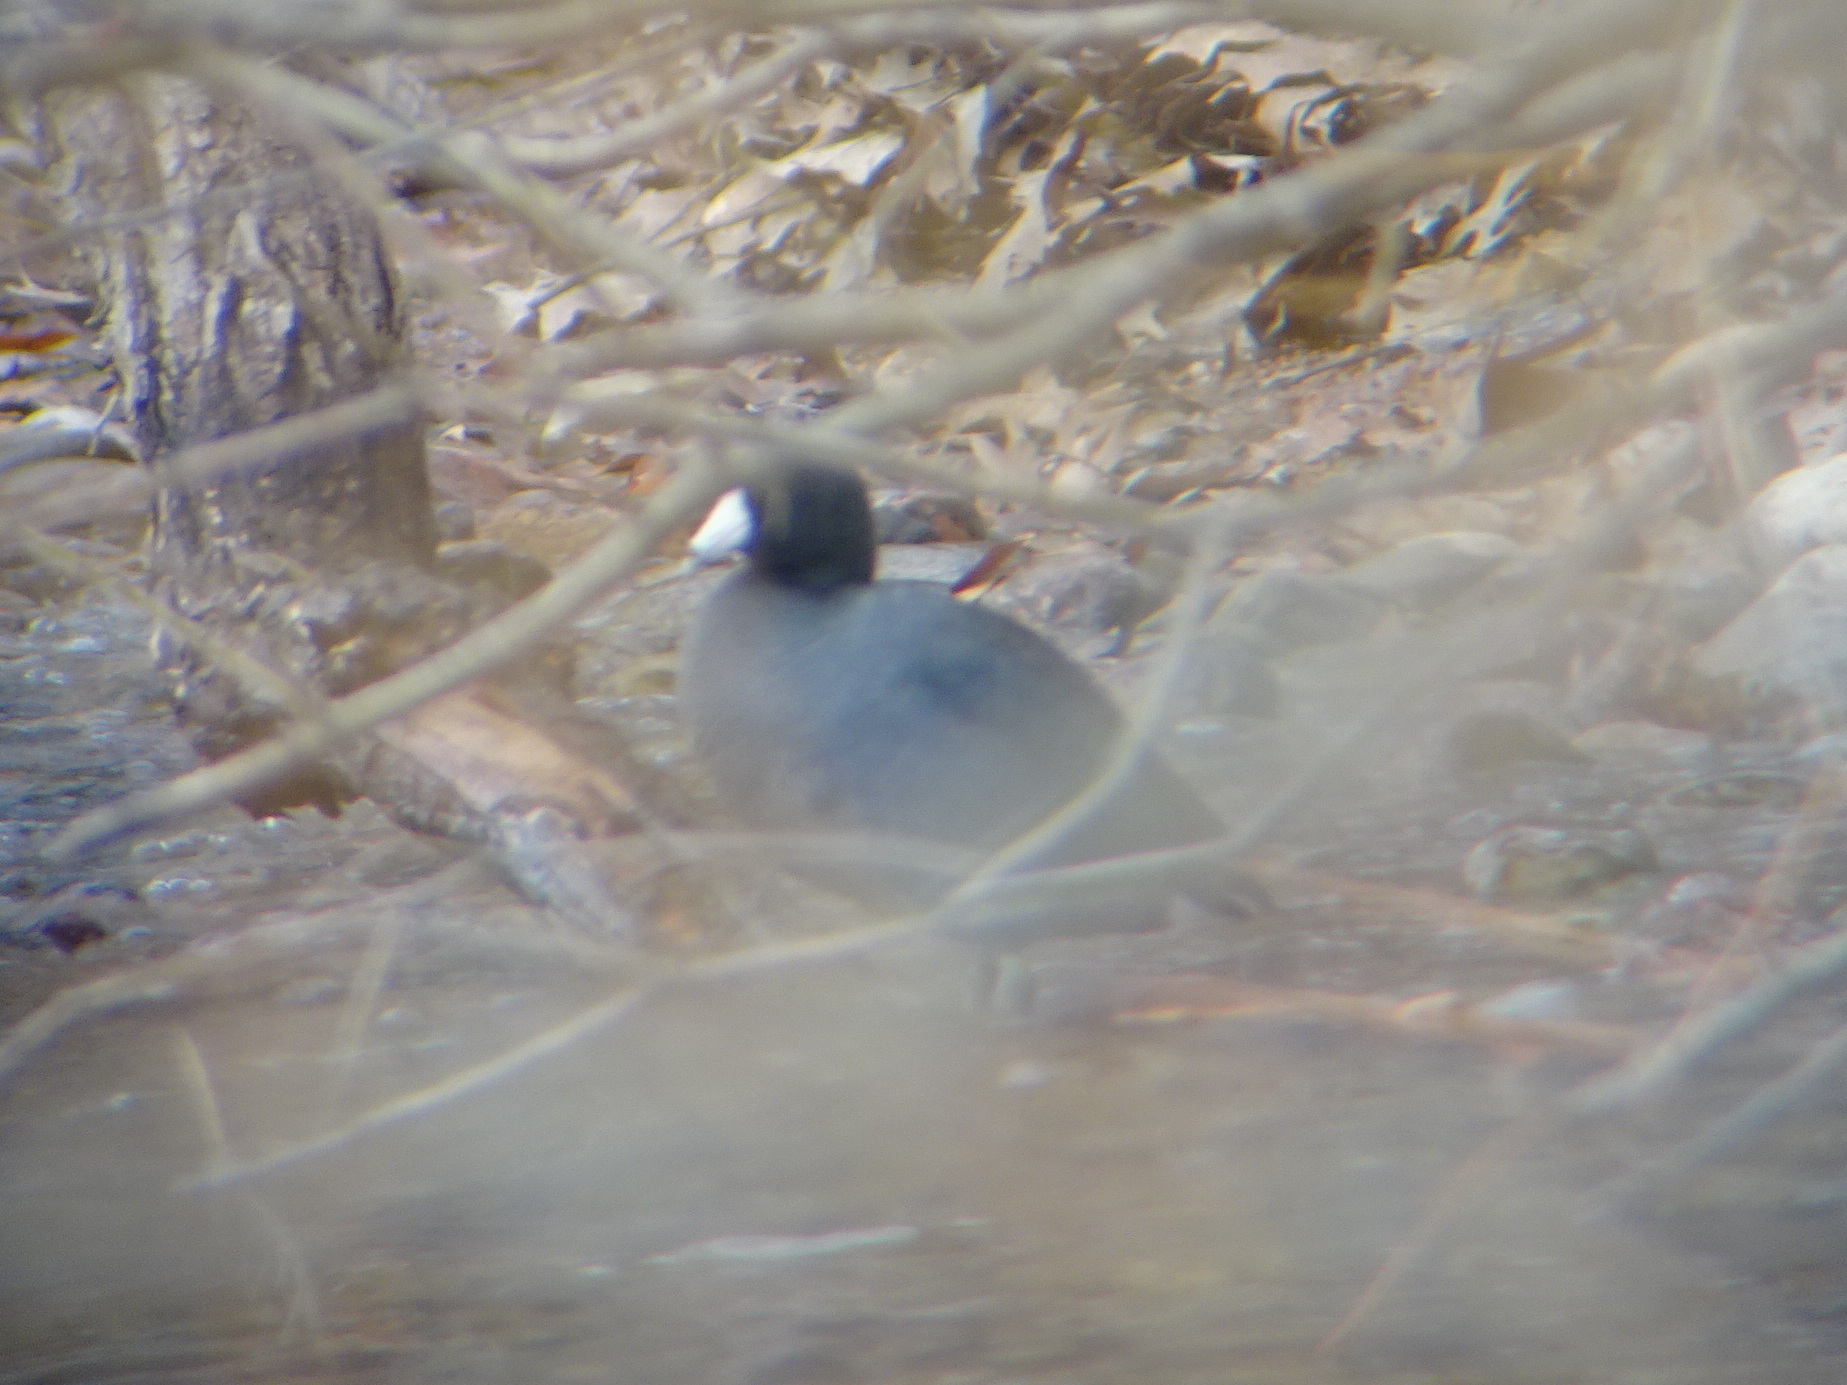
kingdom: Animalia
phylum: Chordata
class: Aves
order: Gruiformes
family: Rallidae
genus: Fulica
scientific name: Fulica americana
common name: American coot
